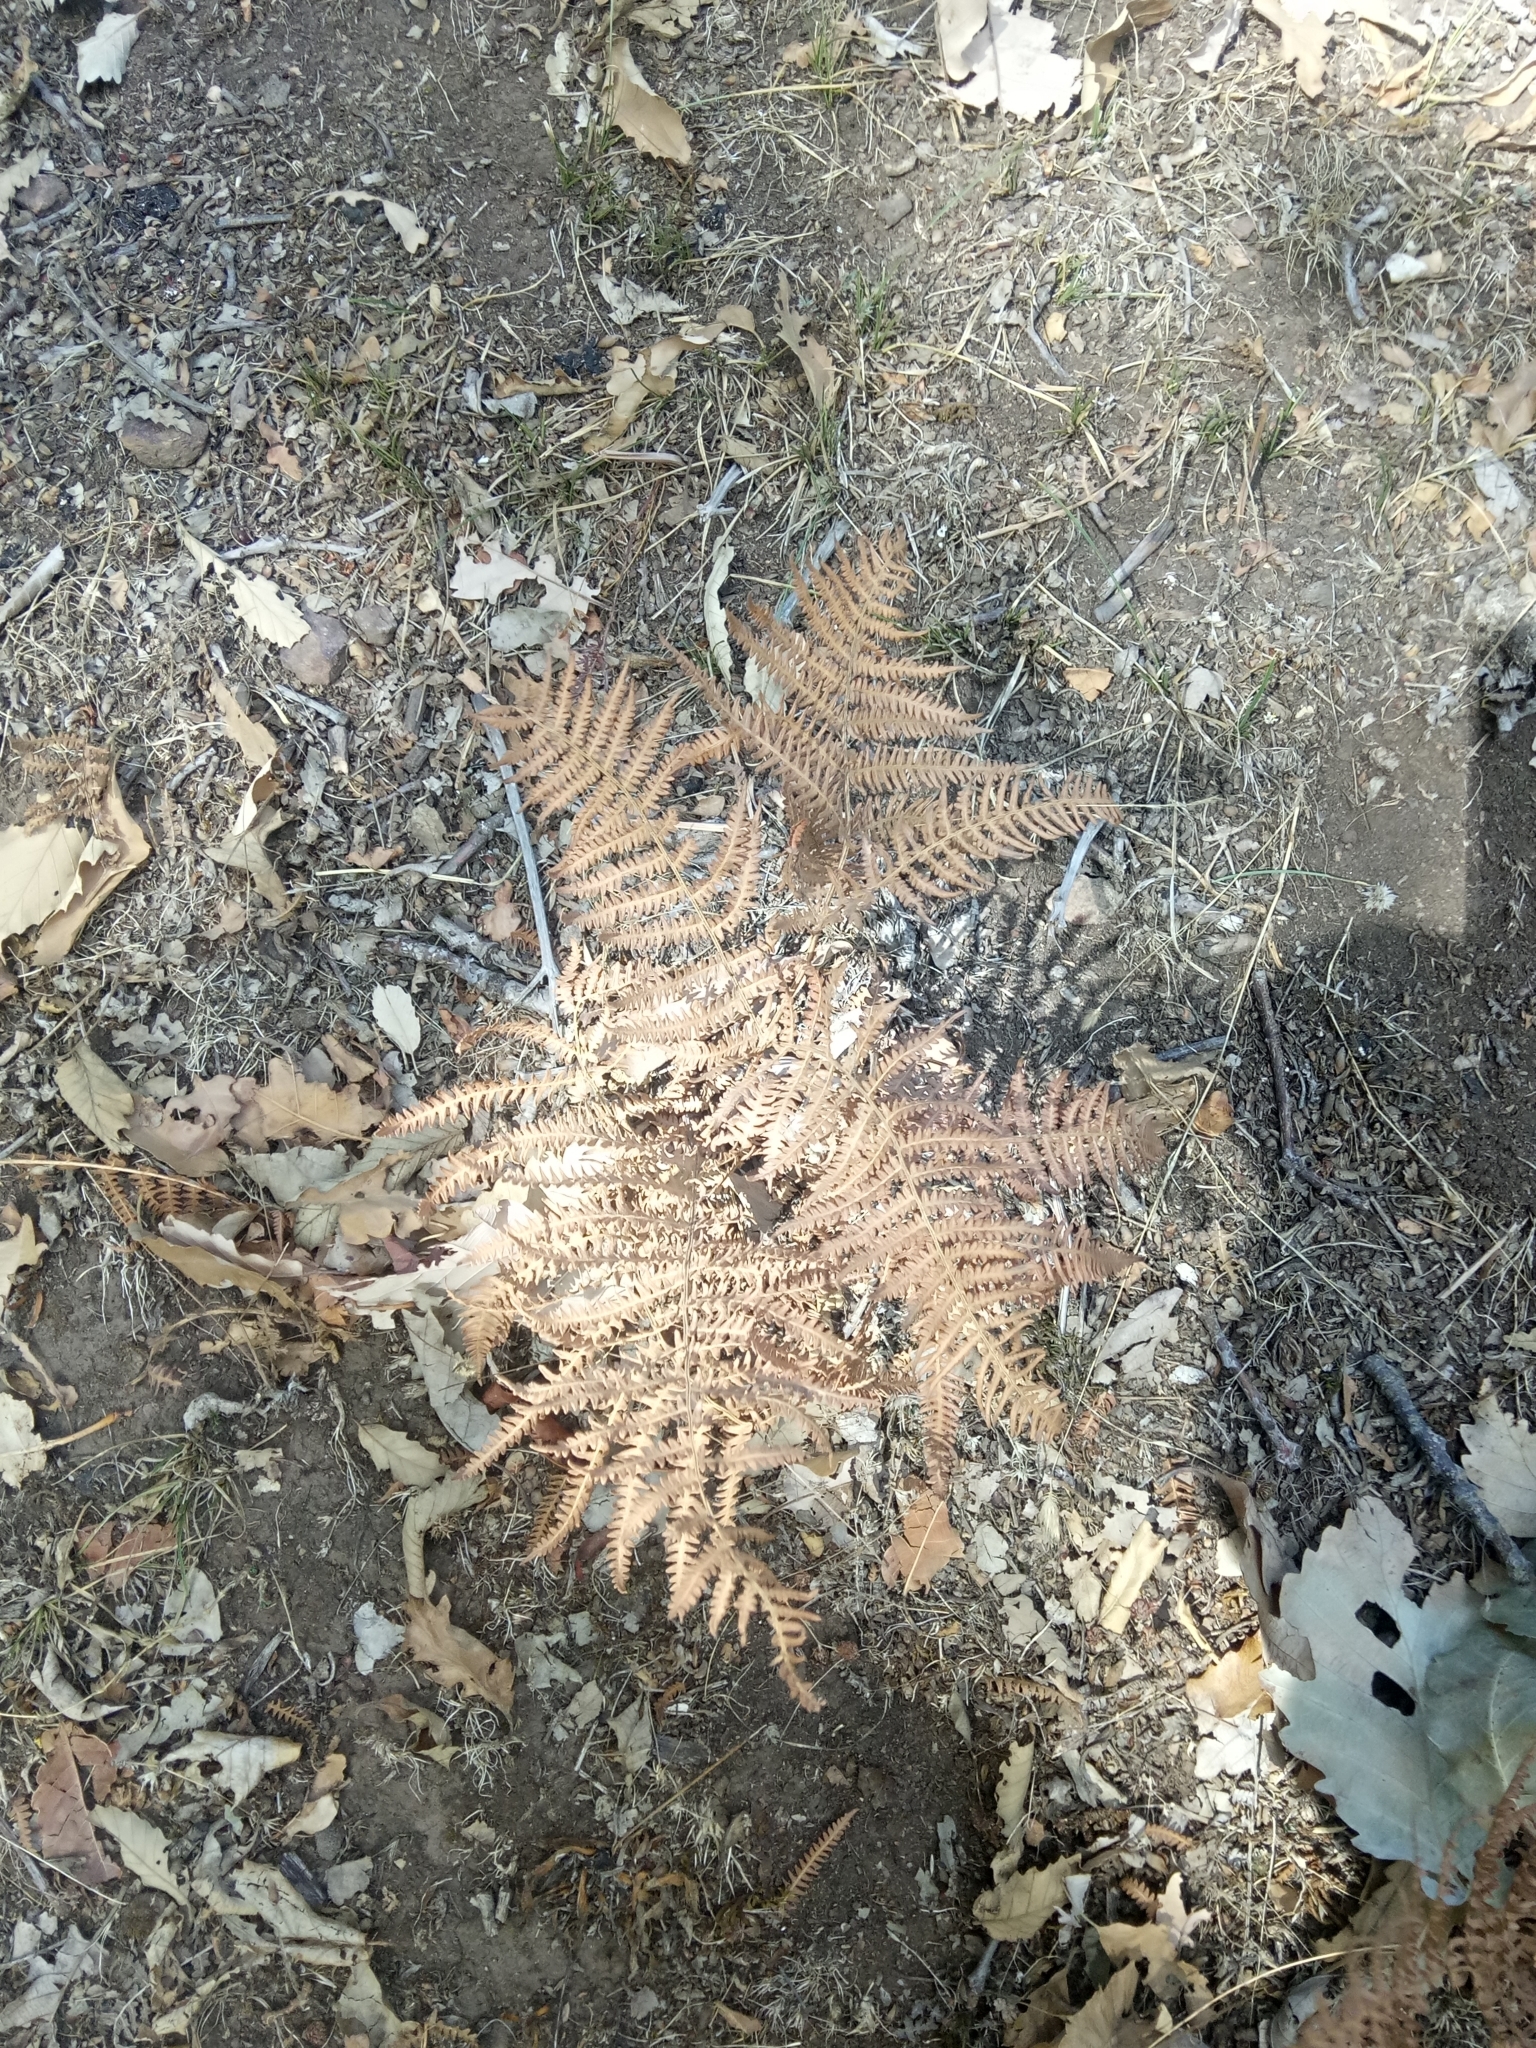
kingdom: Plantae
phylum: Tracheophyta
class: Polypodiopsida
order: Polypodiales
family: Dennstaedtiaceae
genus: Pteridium
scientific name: Pteridium aquilinum
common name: Bracken
